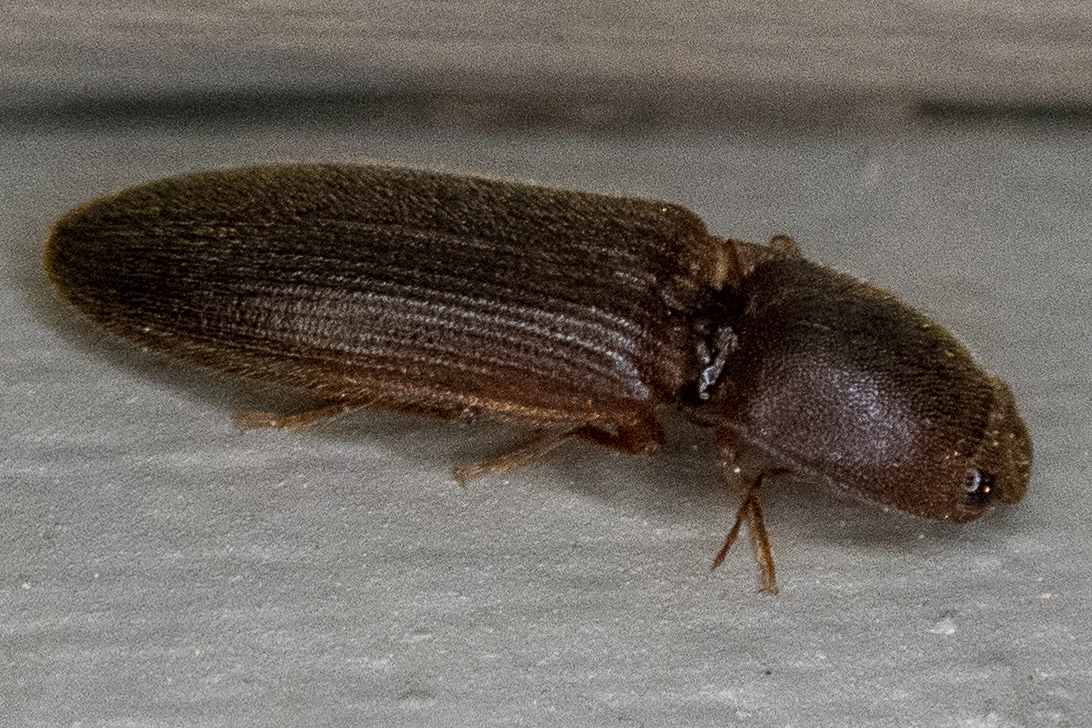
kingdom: Animalia
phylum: Arthropoda
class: Insecta
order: Coleoptera
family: Elateridae
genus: Hemicrepidius
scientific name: Hemicrepidius
